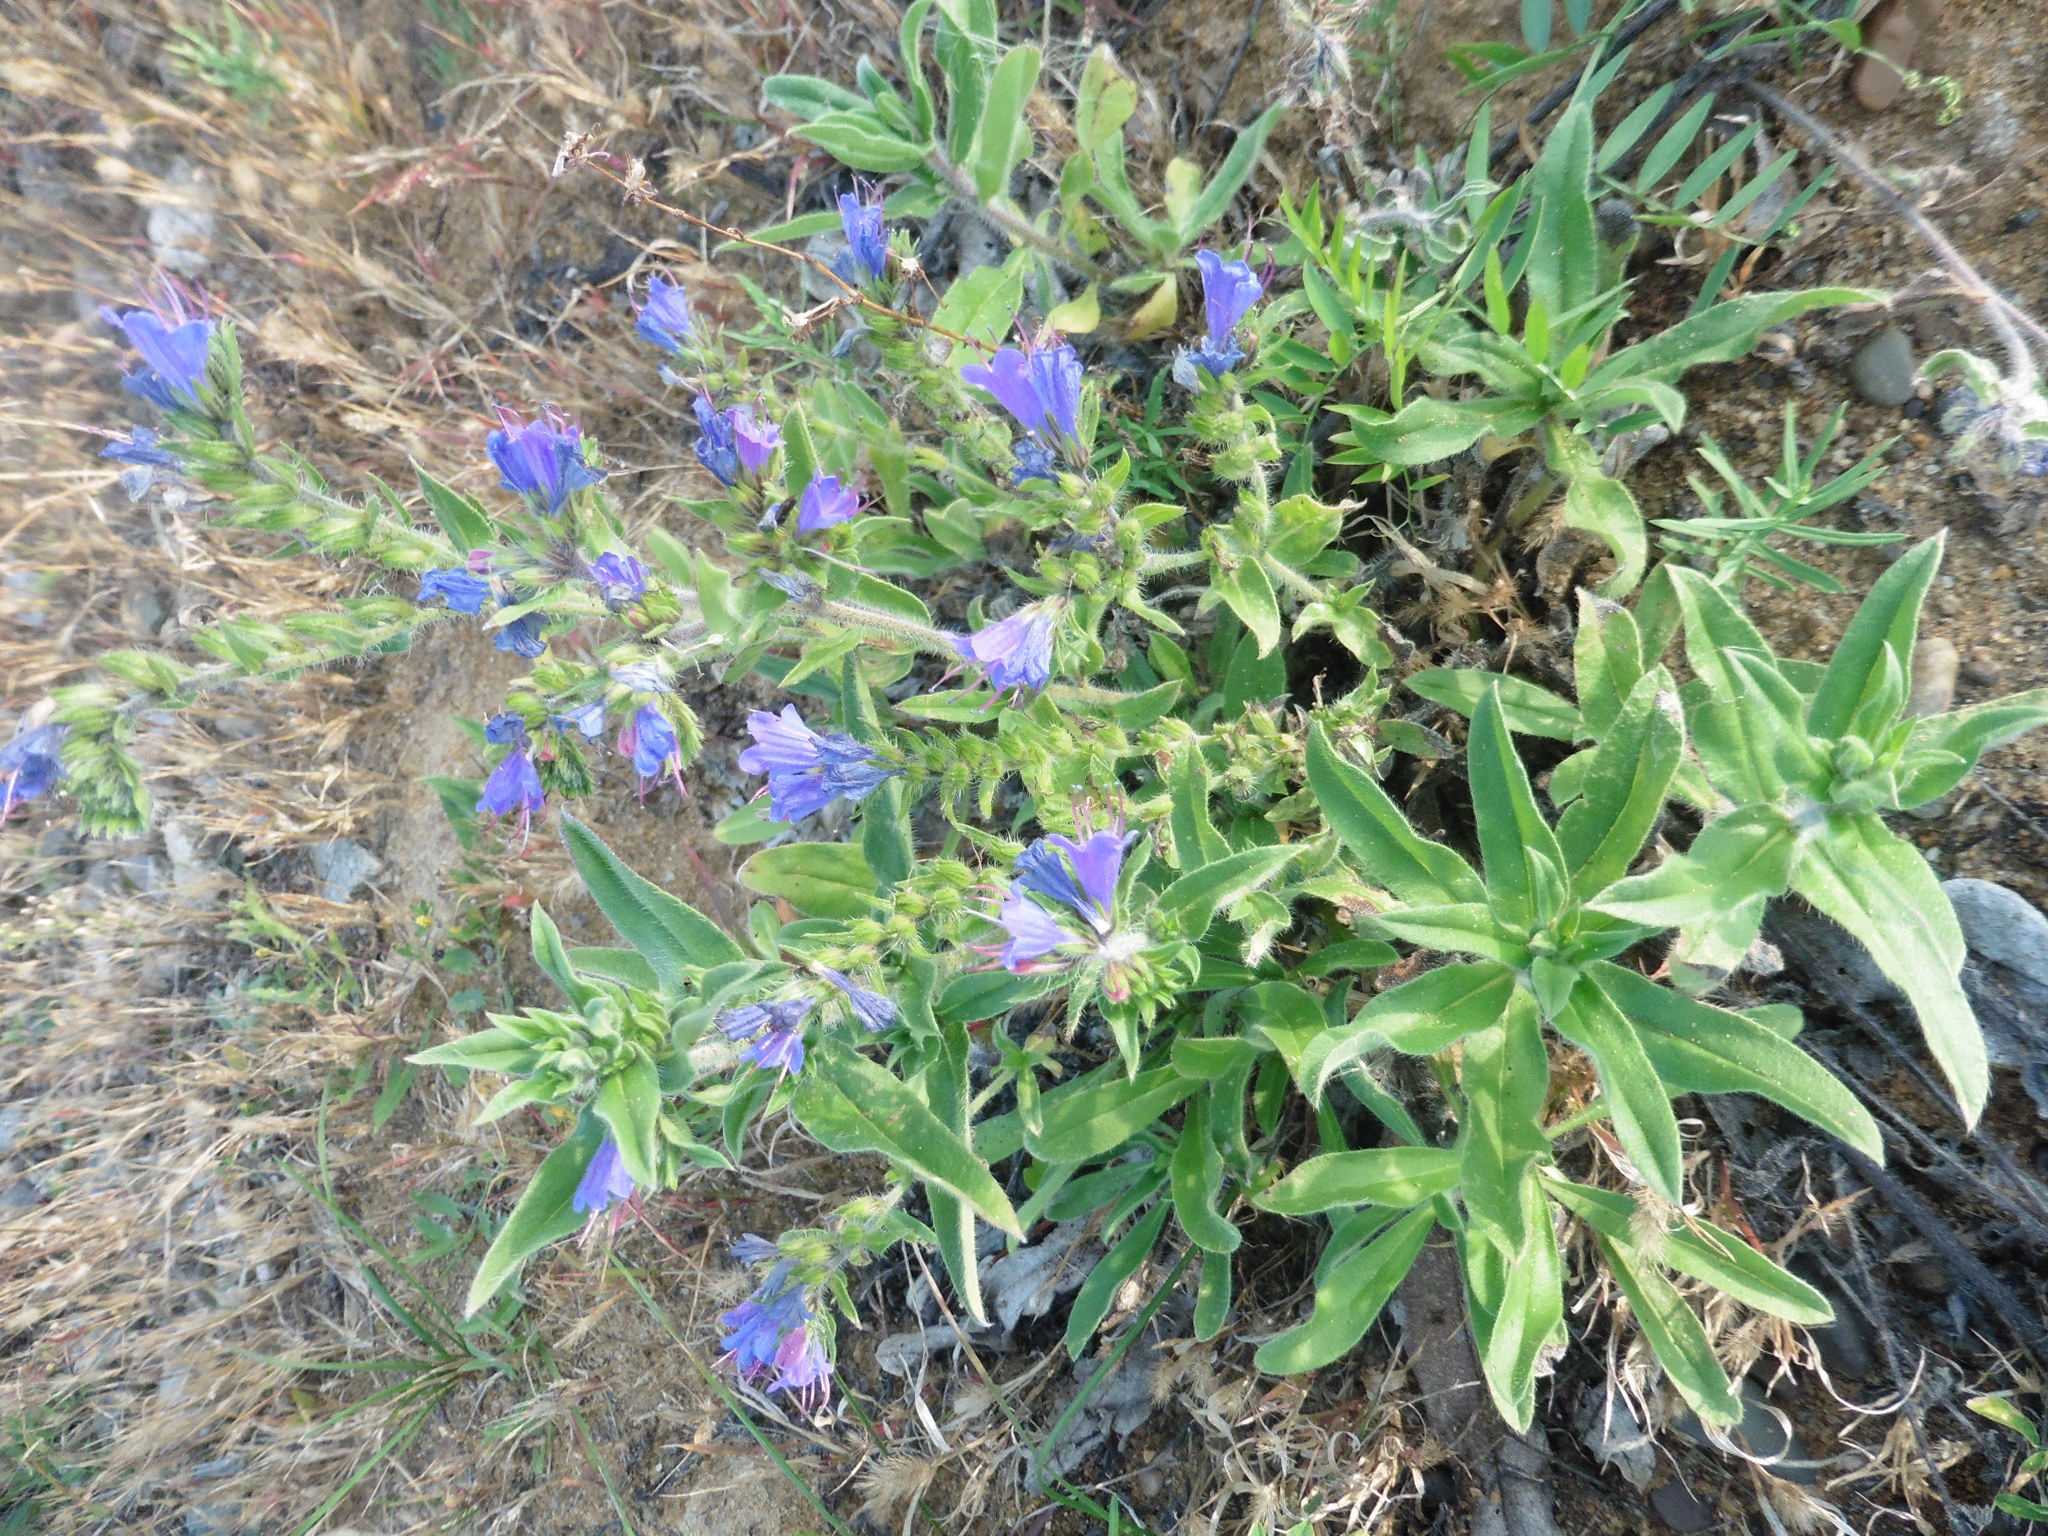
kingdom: Plantae
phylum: Tracheophyta
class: Magnoliopsida
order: Boraginales
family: Boraginaceae
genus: Echium
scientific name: Echium vulgare
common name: Common viper's bugloss
